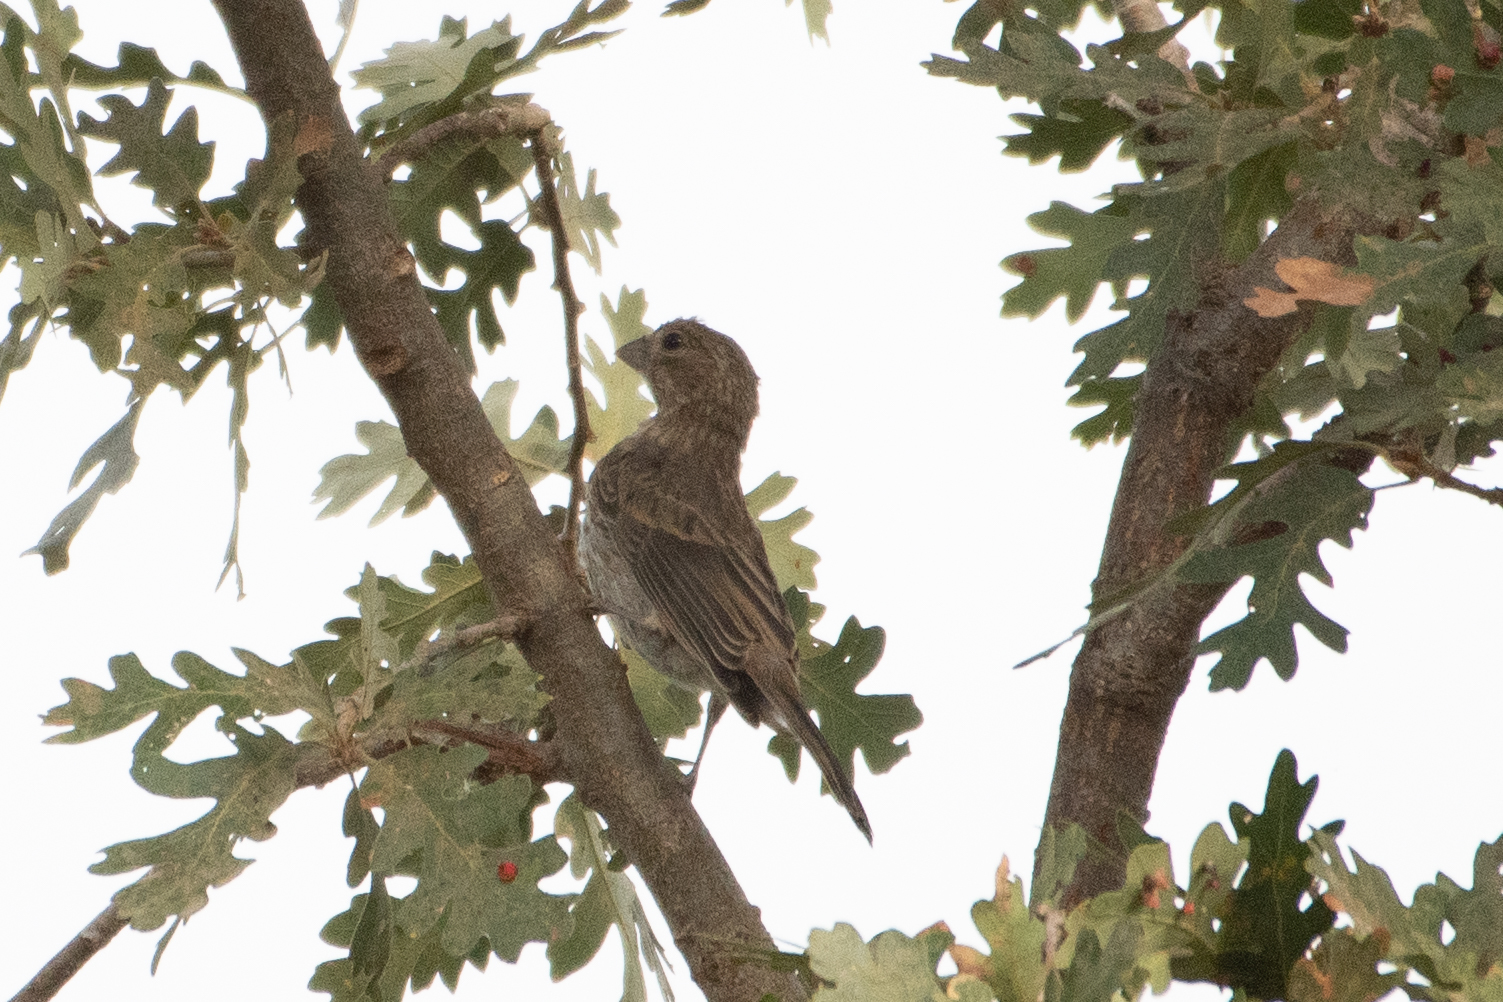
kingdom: Animalia
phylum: Chordata
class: Aves
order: Passeriformes
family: Fringillidae
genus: Haemorhous
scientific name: Haemorhous mexicanus
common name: House finch
